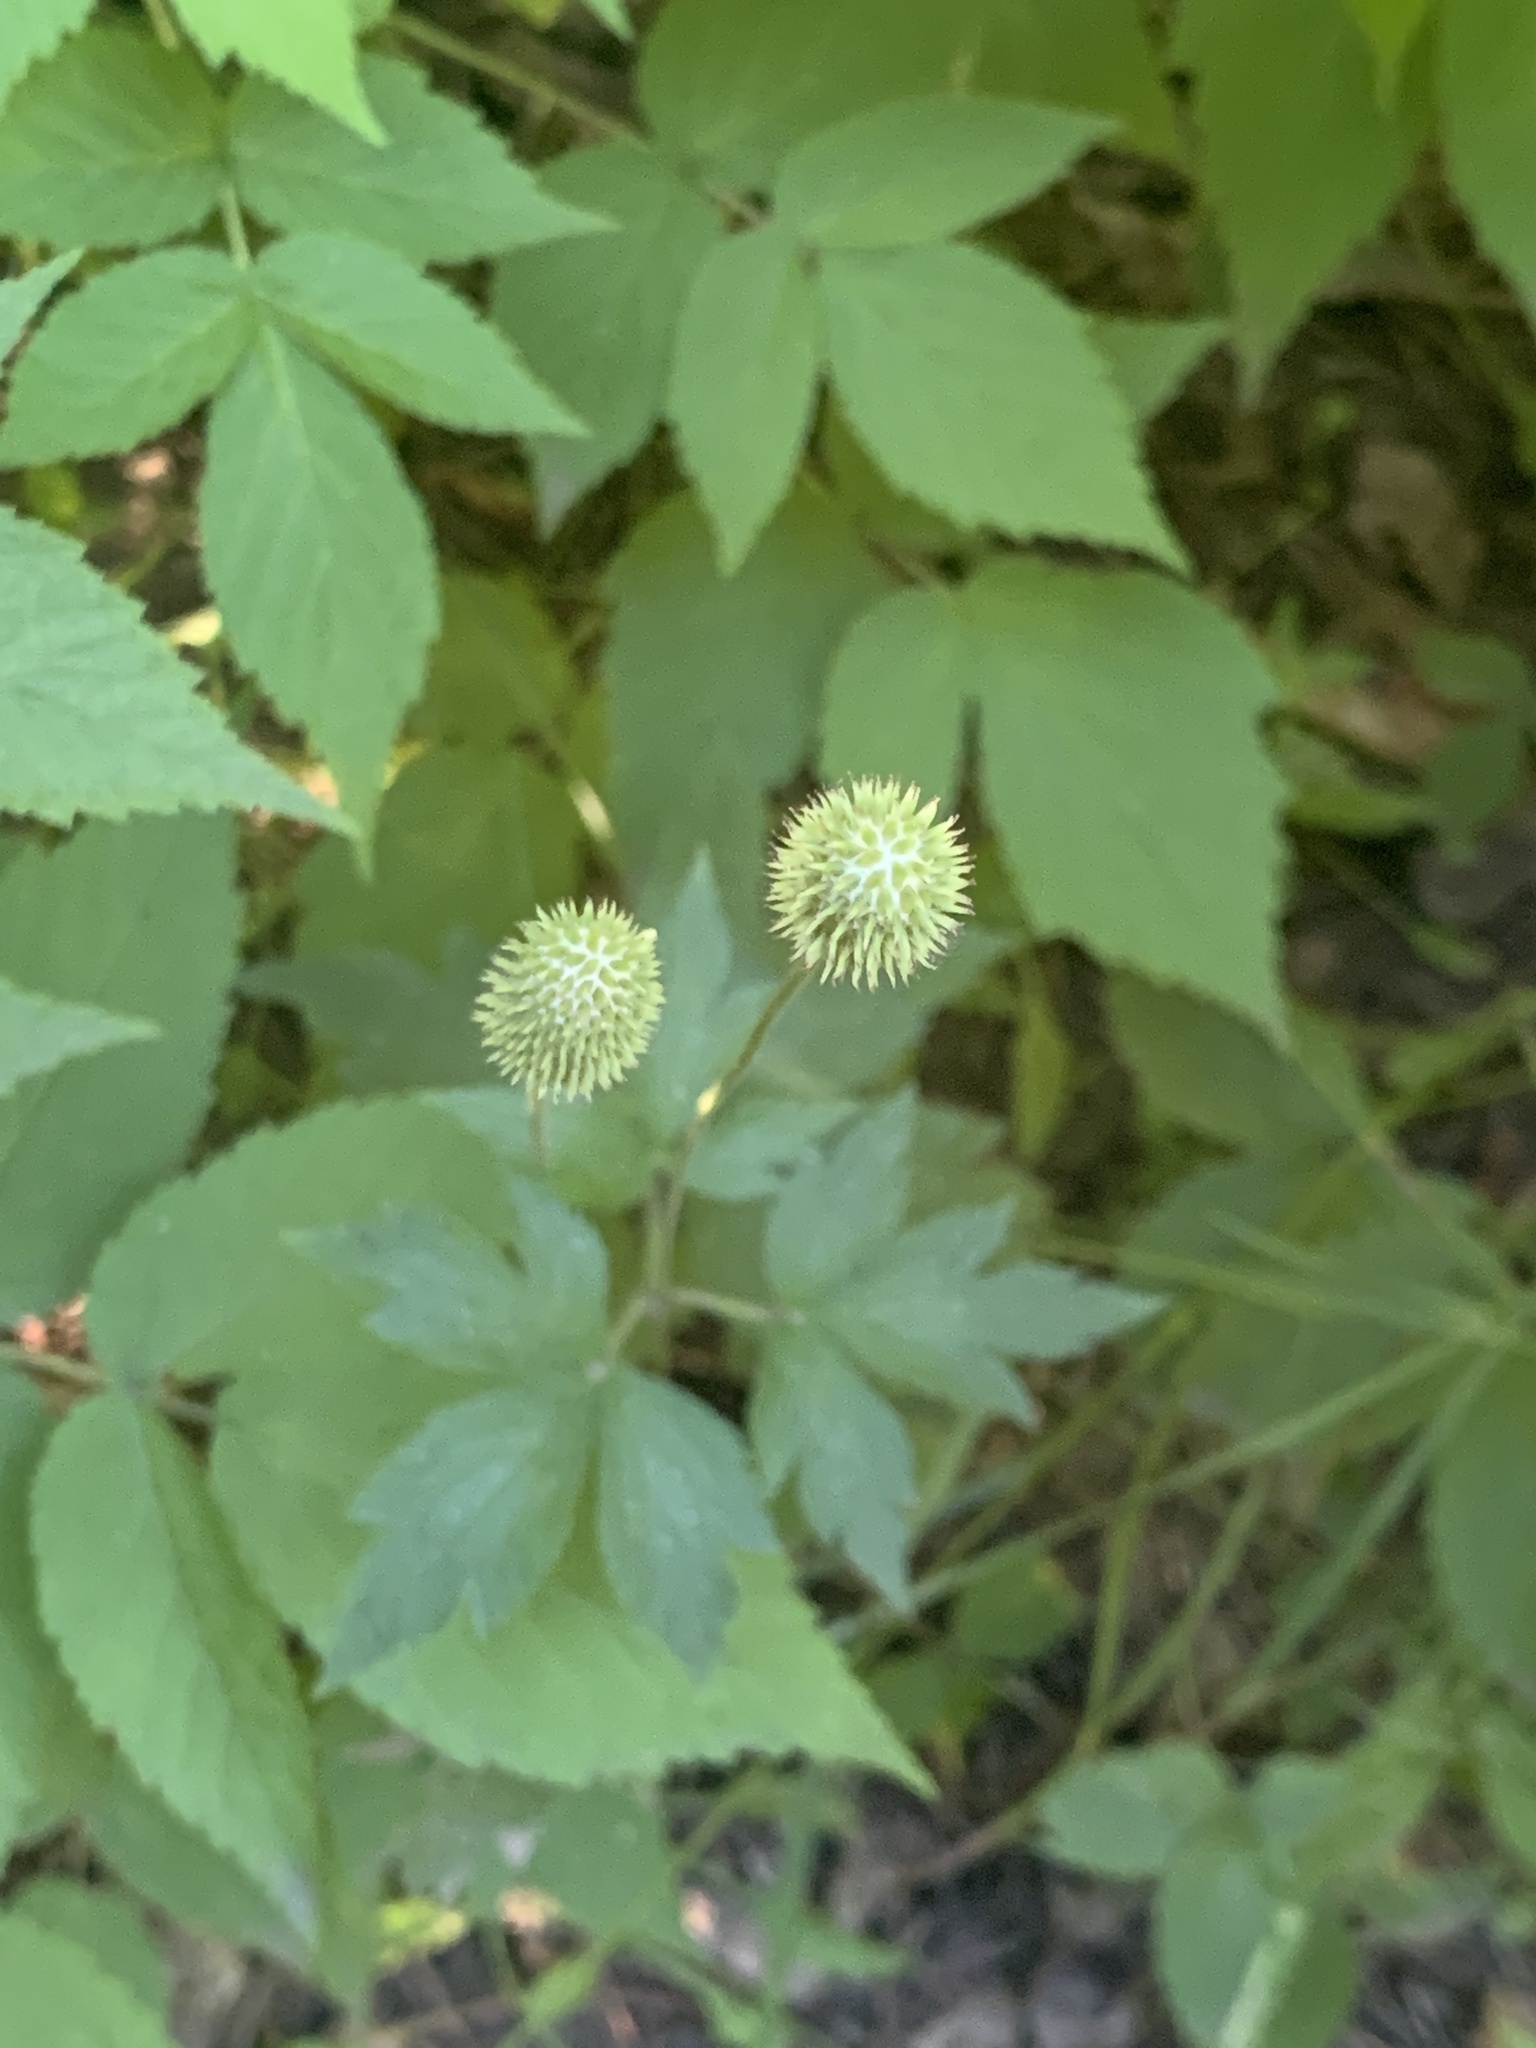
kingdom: Plantae
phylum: Tracheophyta
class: Magnoliopsida
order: Ranunculales
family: Ranunculaceae
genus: Anemone
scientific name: Anemone virginiana
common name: Tall anemone
